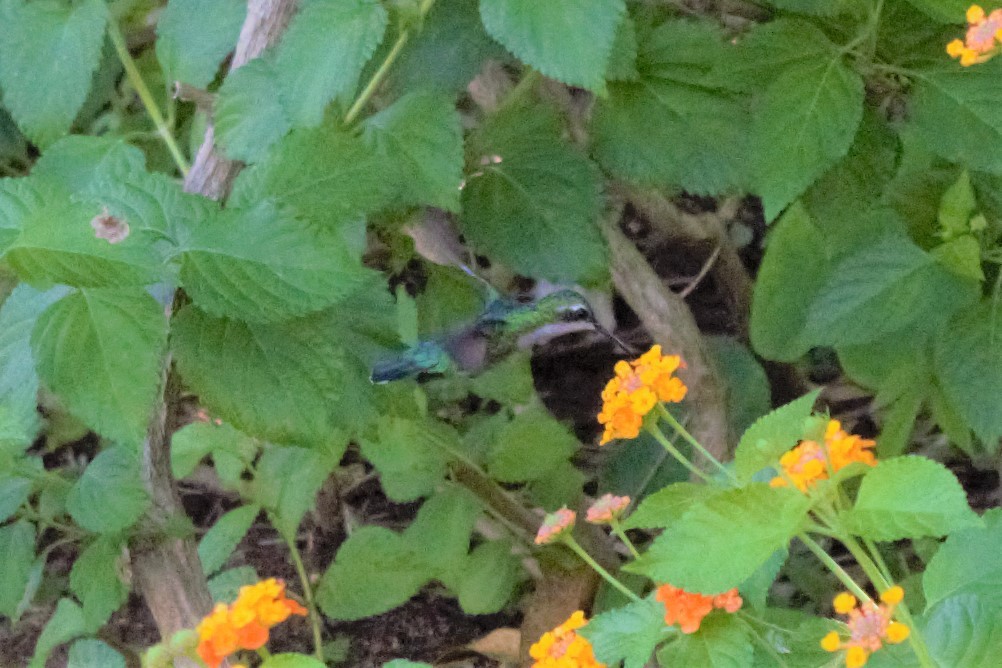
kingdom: Animalia
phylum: Chordata
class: Aves
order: Apodiformes
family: Trochilidae
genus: Chlorostilbon
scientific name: Chlorostilbon assimilis
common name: Garden emerald
